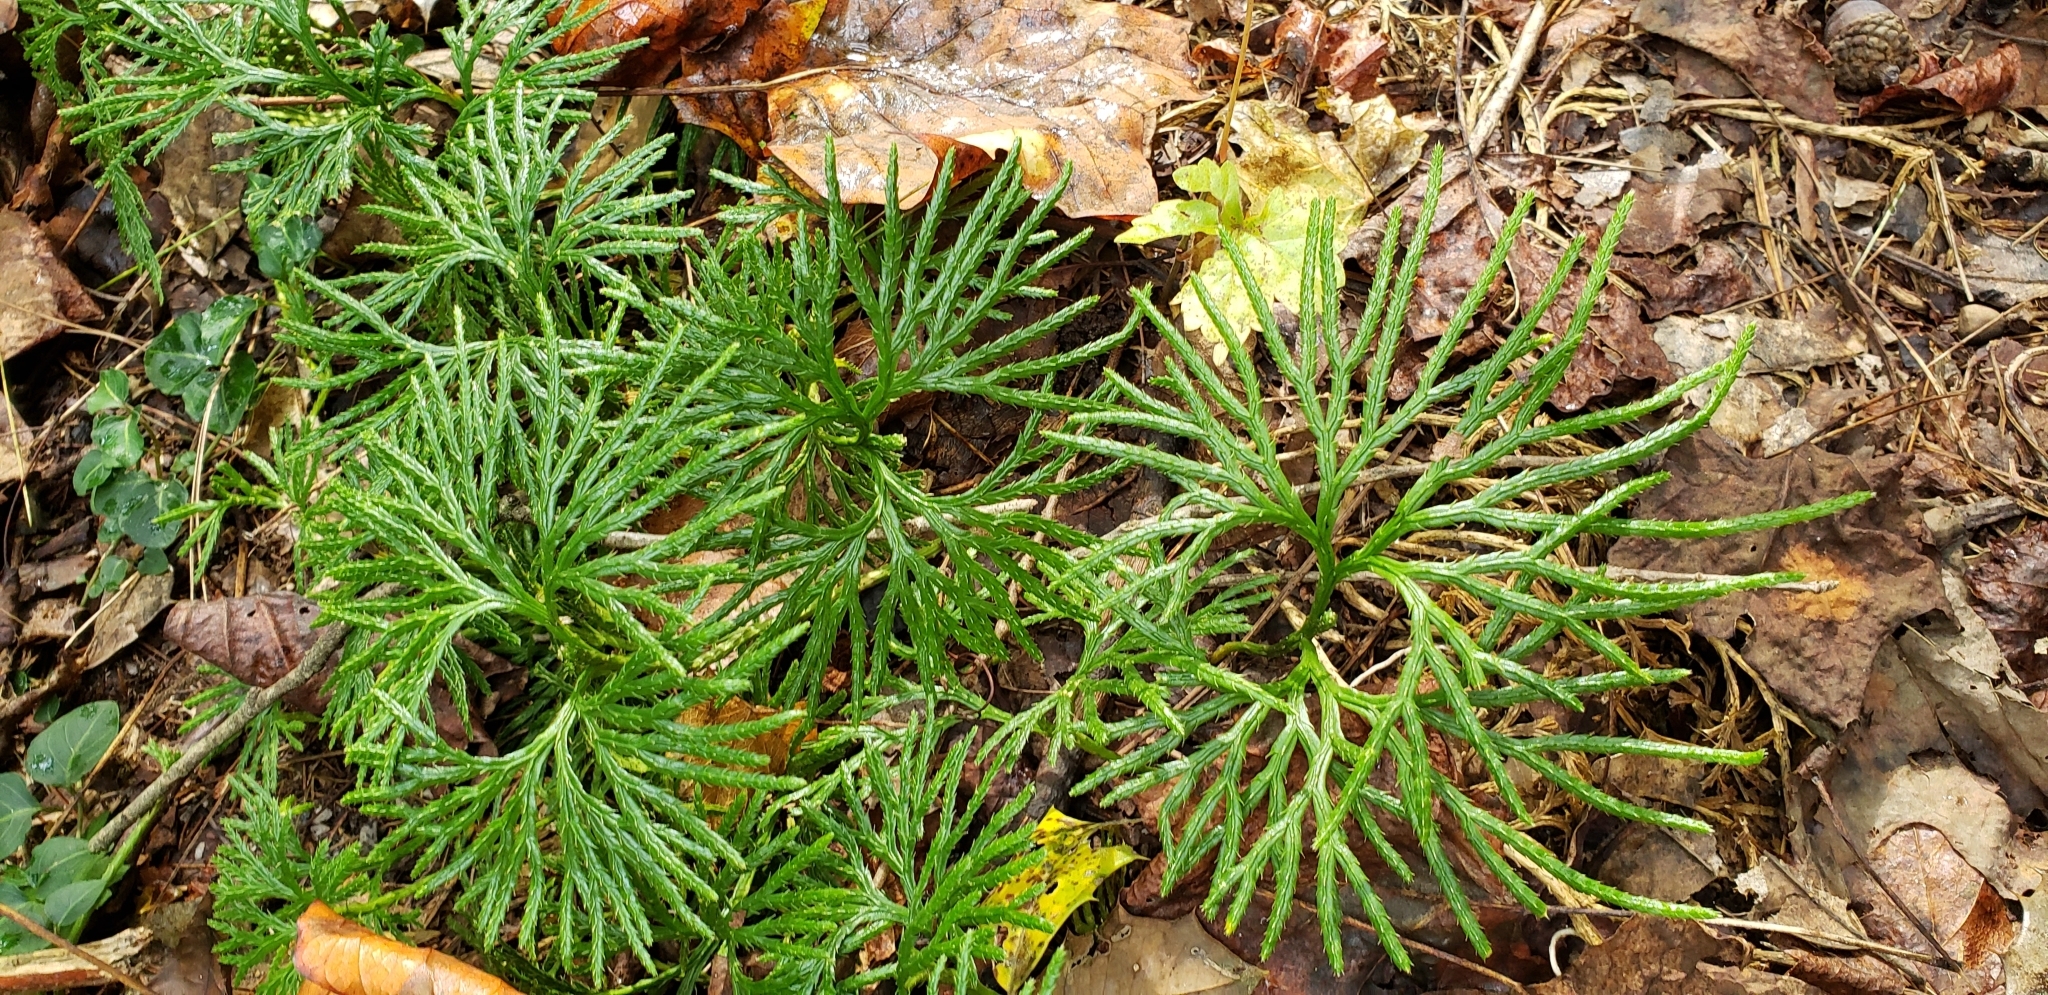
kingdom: Plantae
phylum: Tracheophyta
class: Lycopodiopsida
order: Lycopodiales
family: Lycopodiaceae
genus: Diphasiastrum
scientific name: Diphasiastrum digitatum
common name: Southern running-pine
